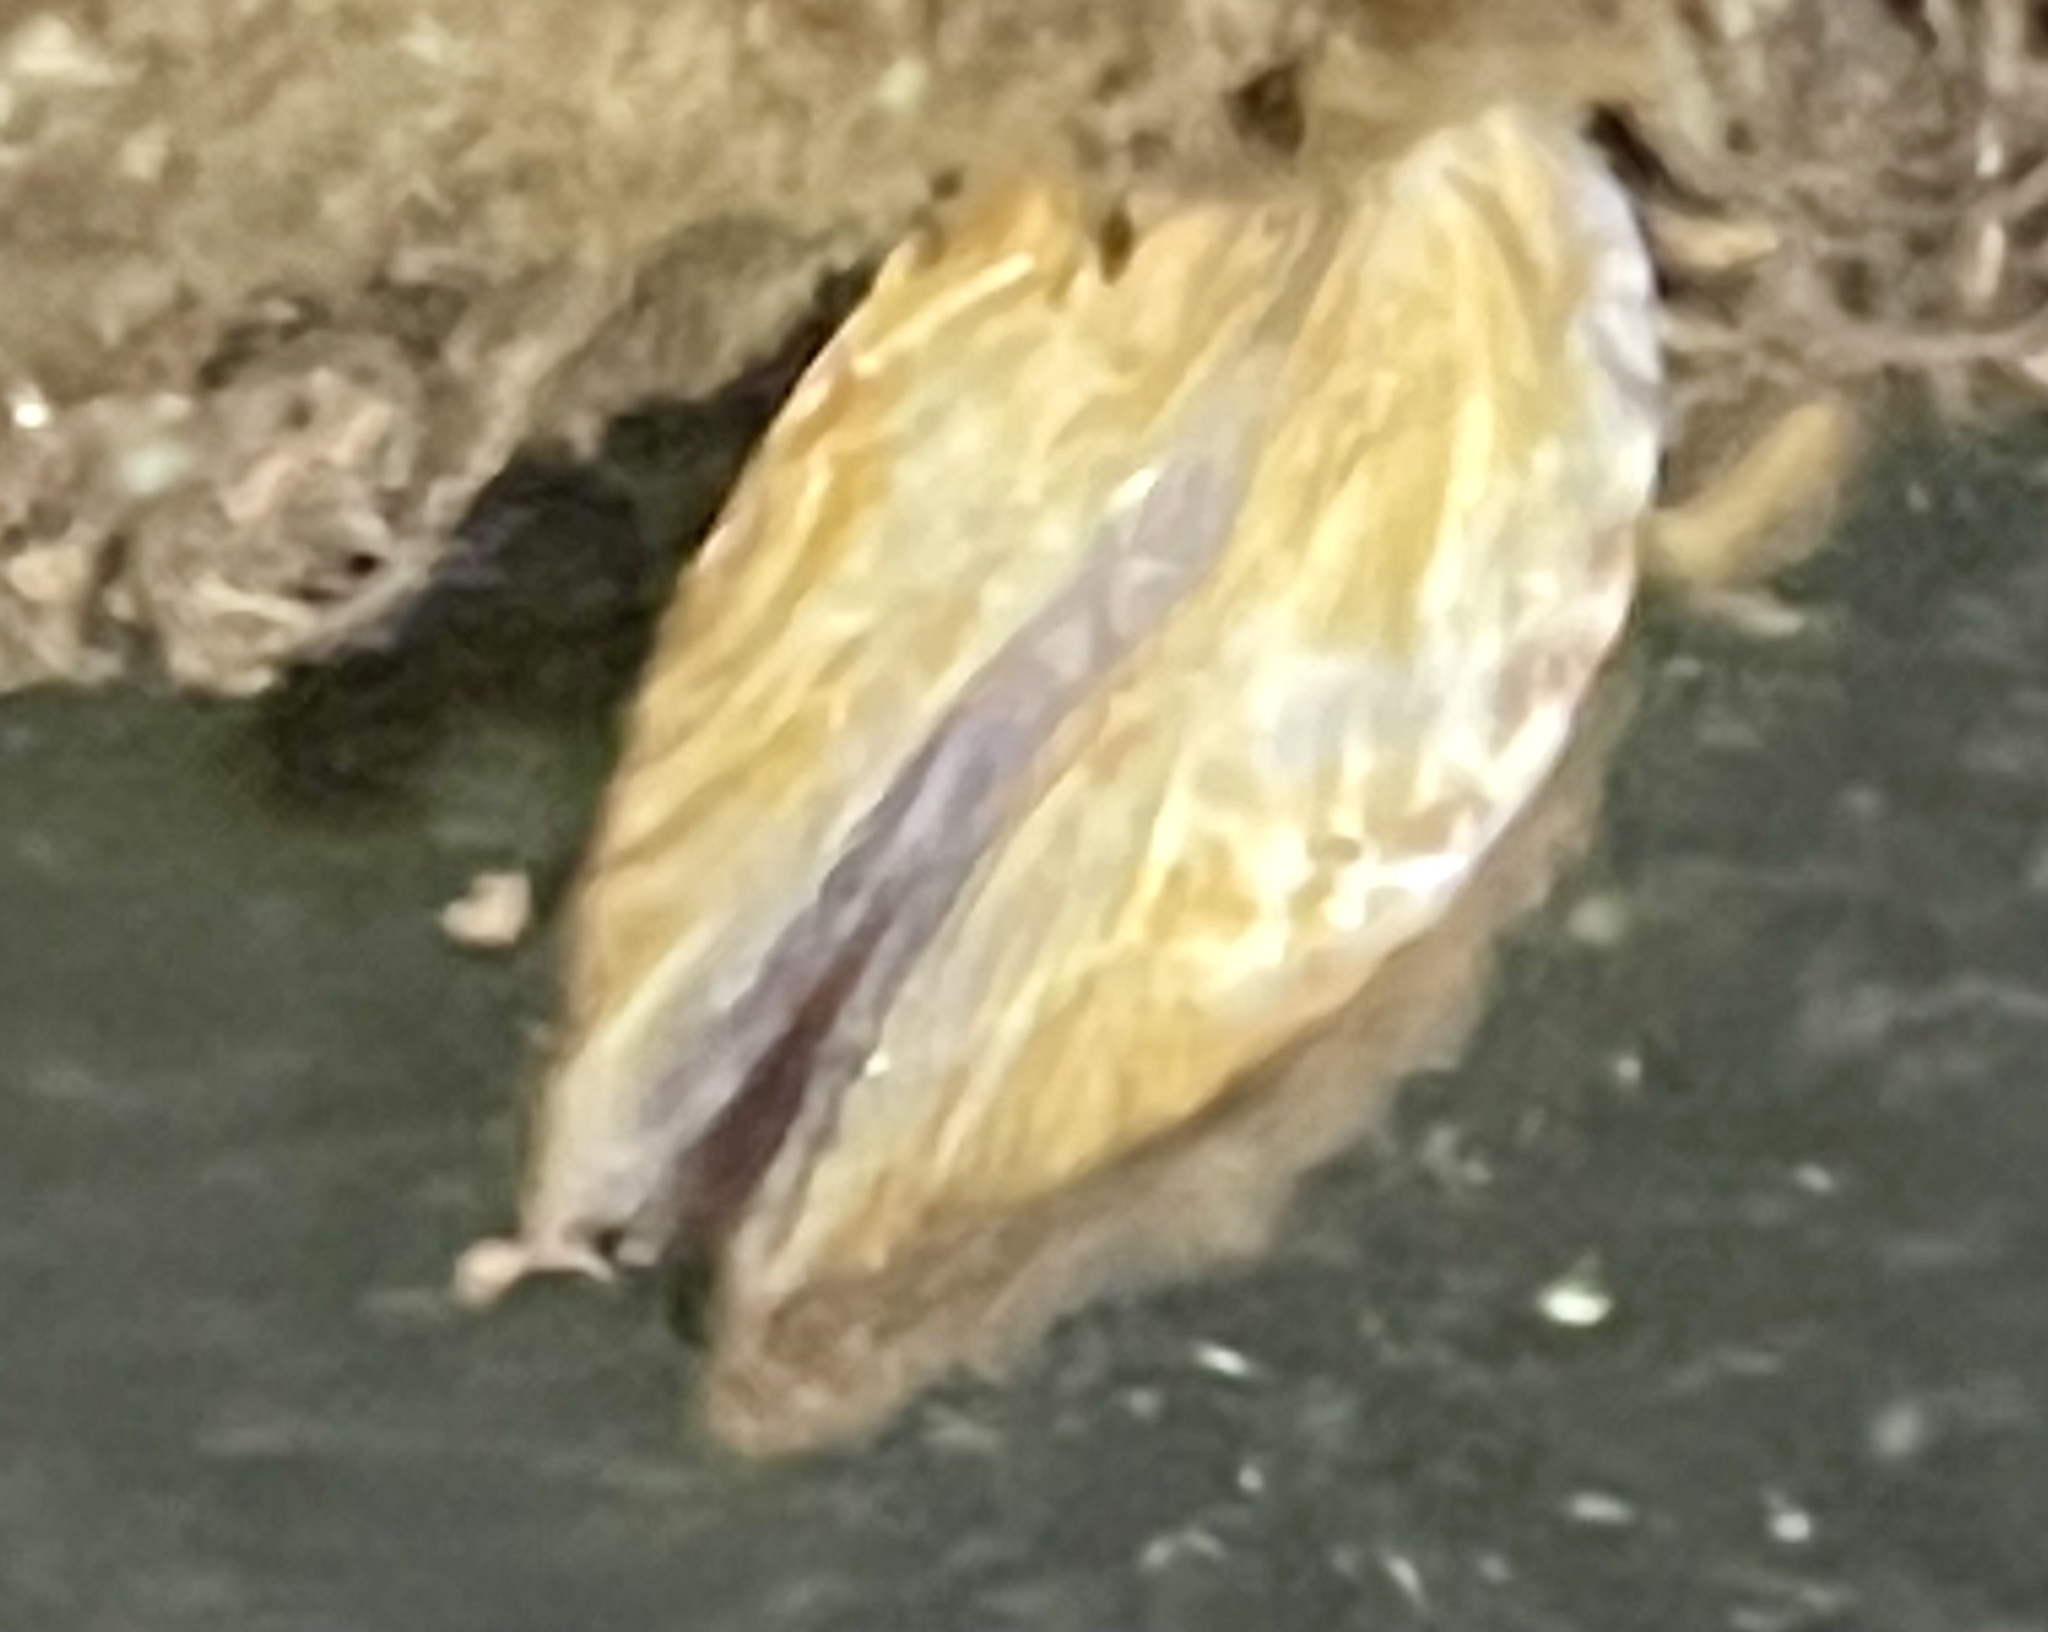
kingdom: Animalia
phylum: Mollusca
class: Bivalvia
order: Myida
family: Dreissenidae
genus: Dreissena
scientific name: Dreissena polymorpha
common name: Zebra mussel
